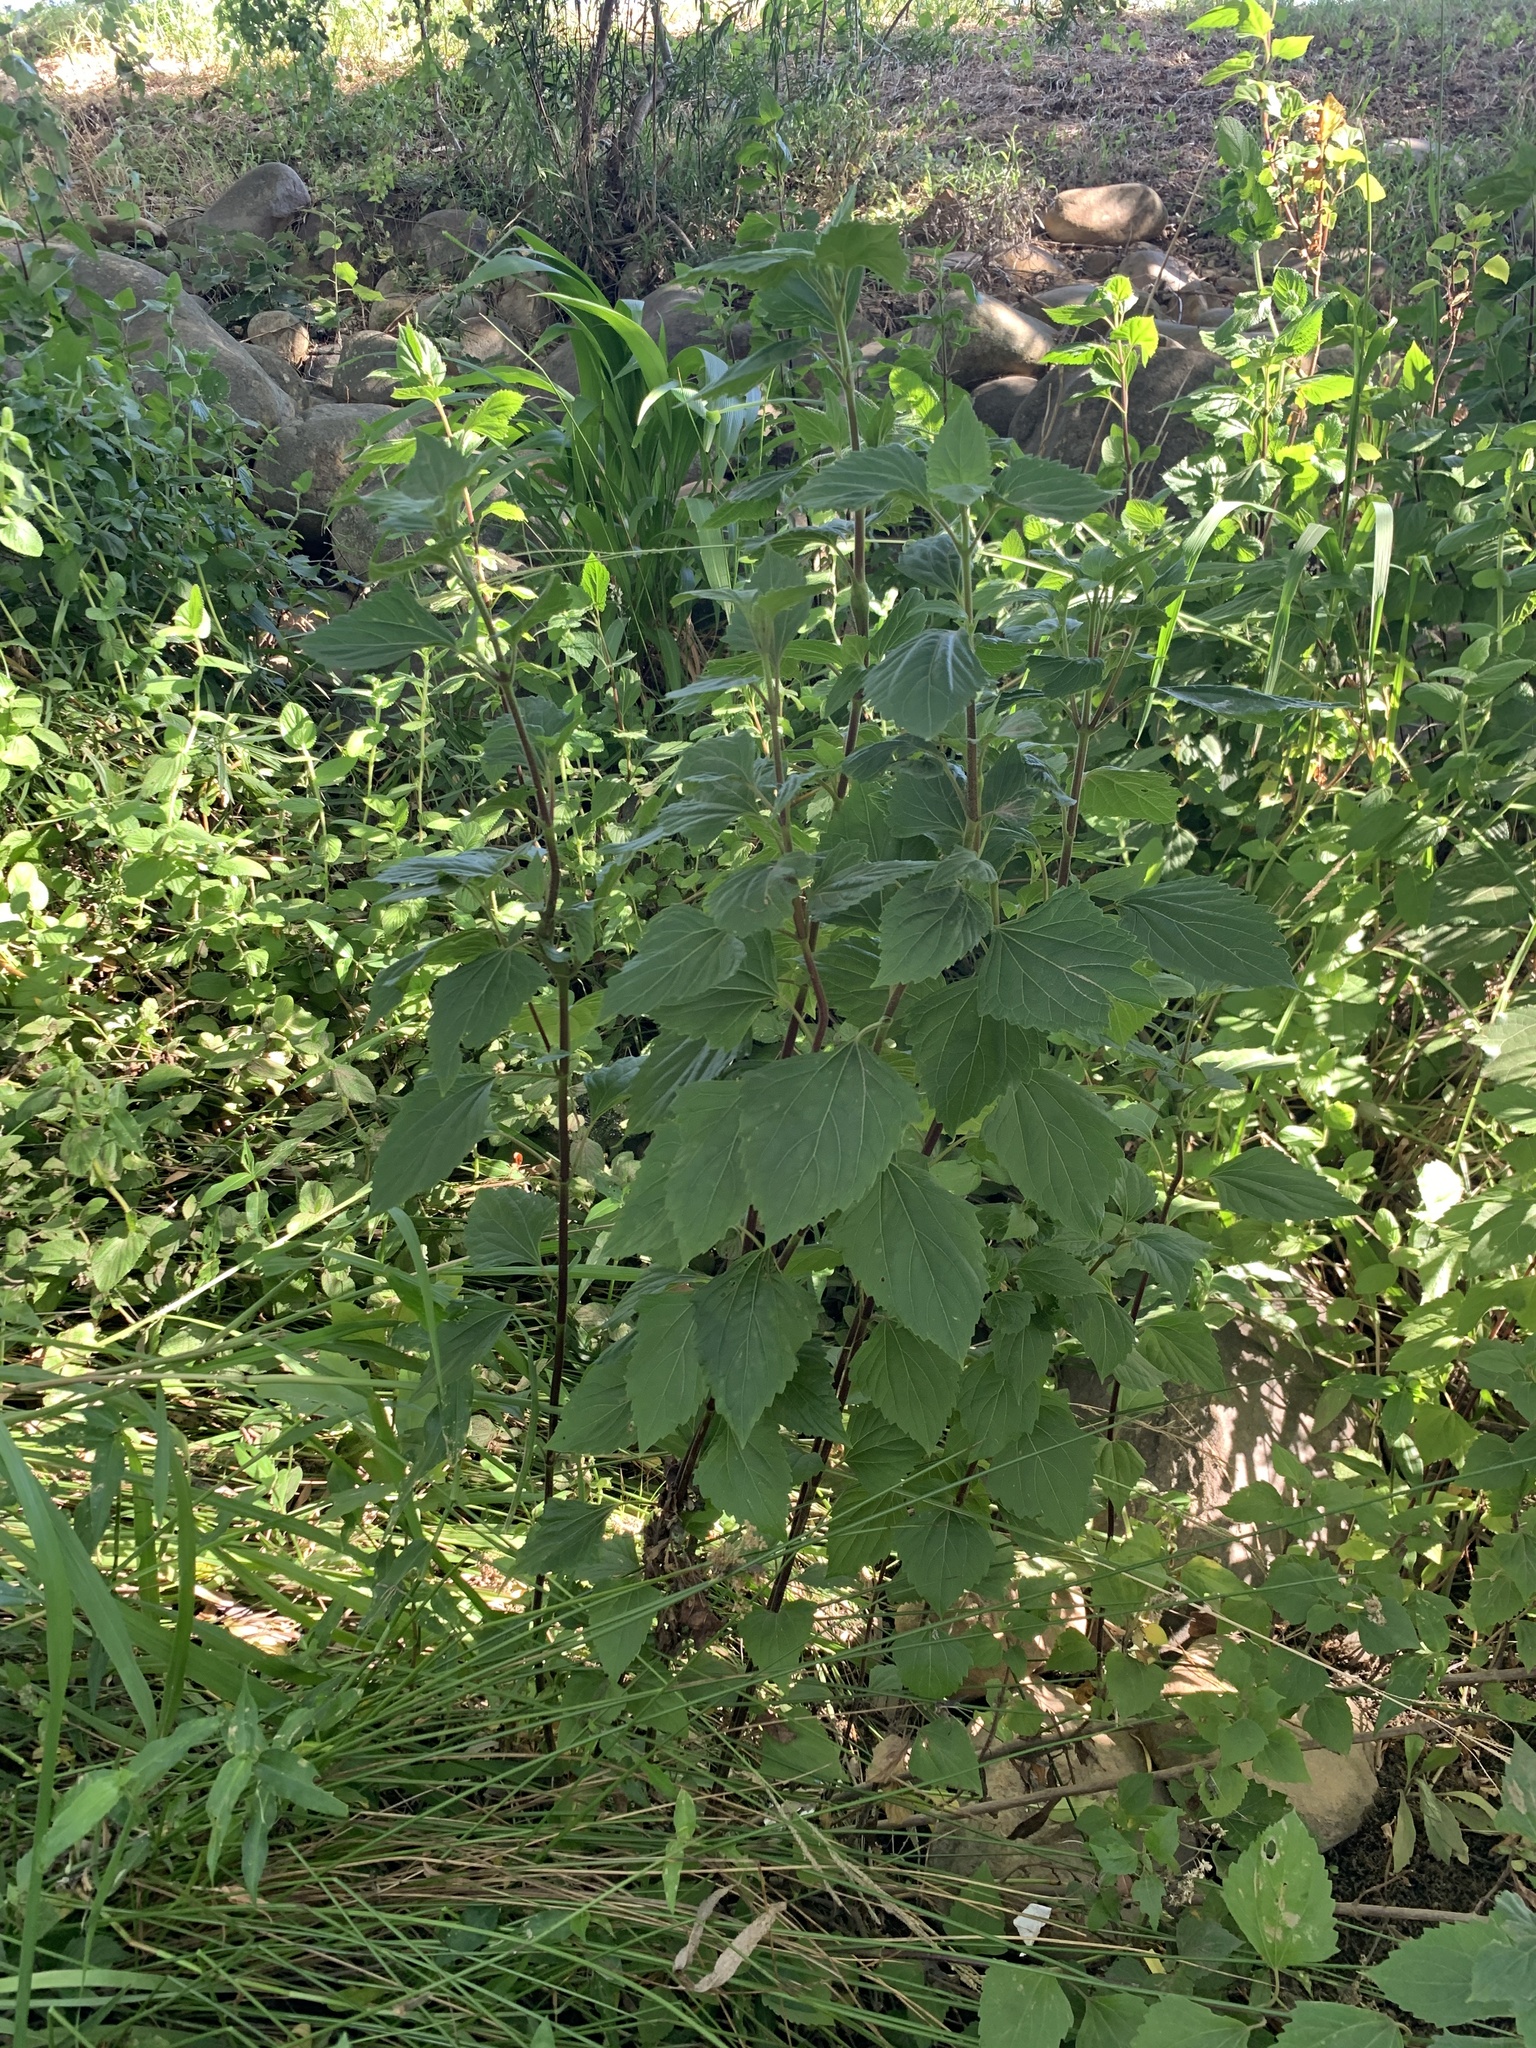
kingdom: Plantae
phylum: Tracheophyta
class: Magnoliopsida
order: Asterales
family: Asteraceae
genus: Ageratina
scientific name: Ageratina adenophora
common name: Sticky snakeroot
